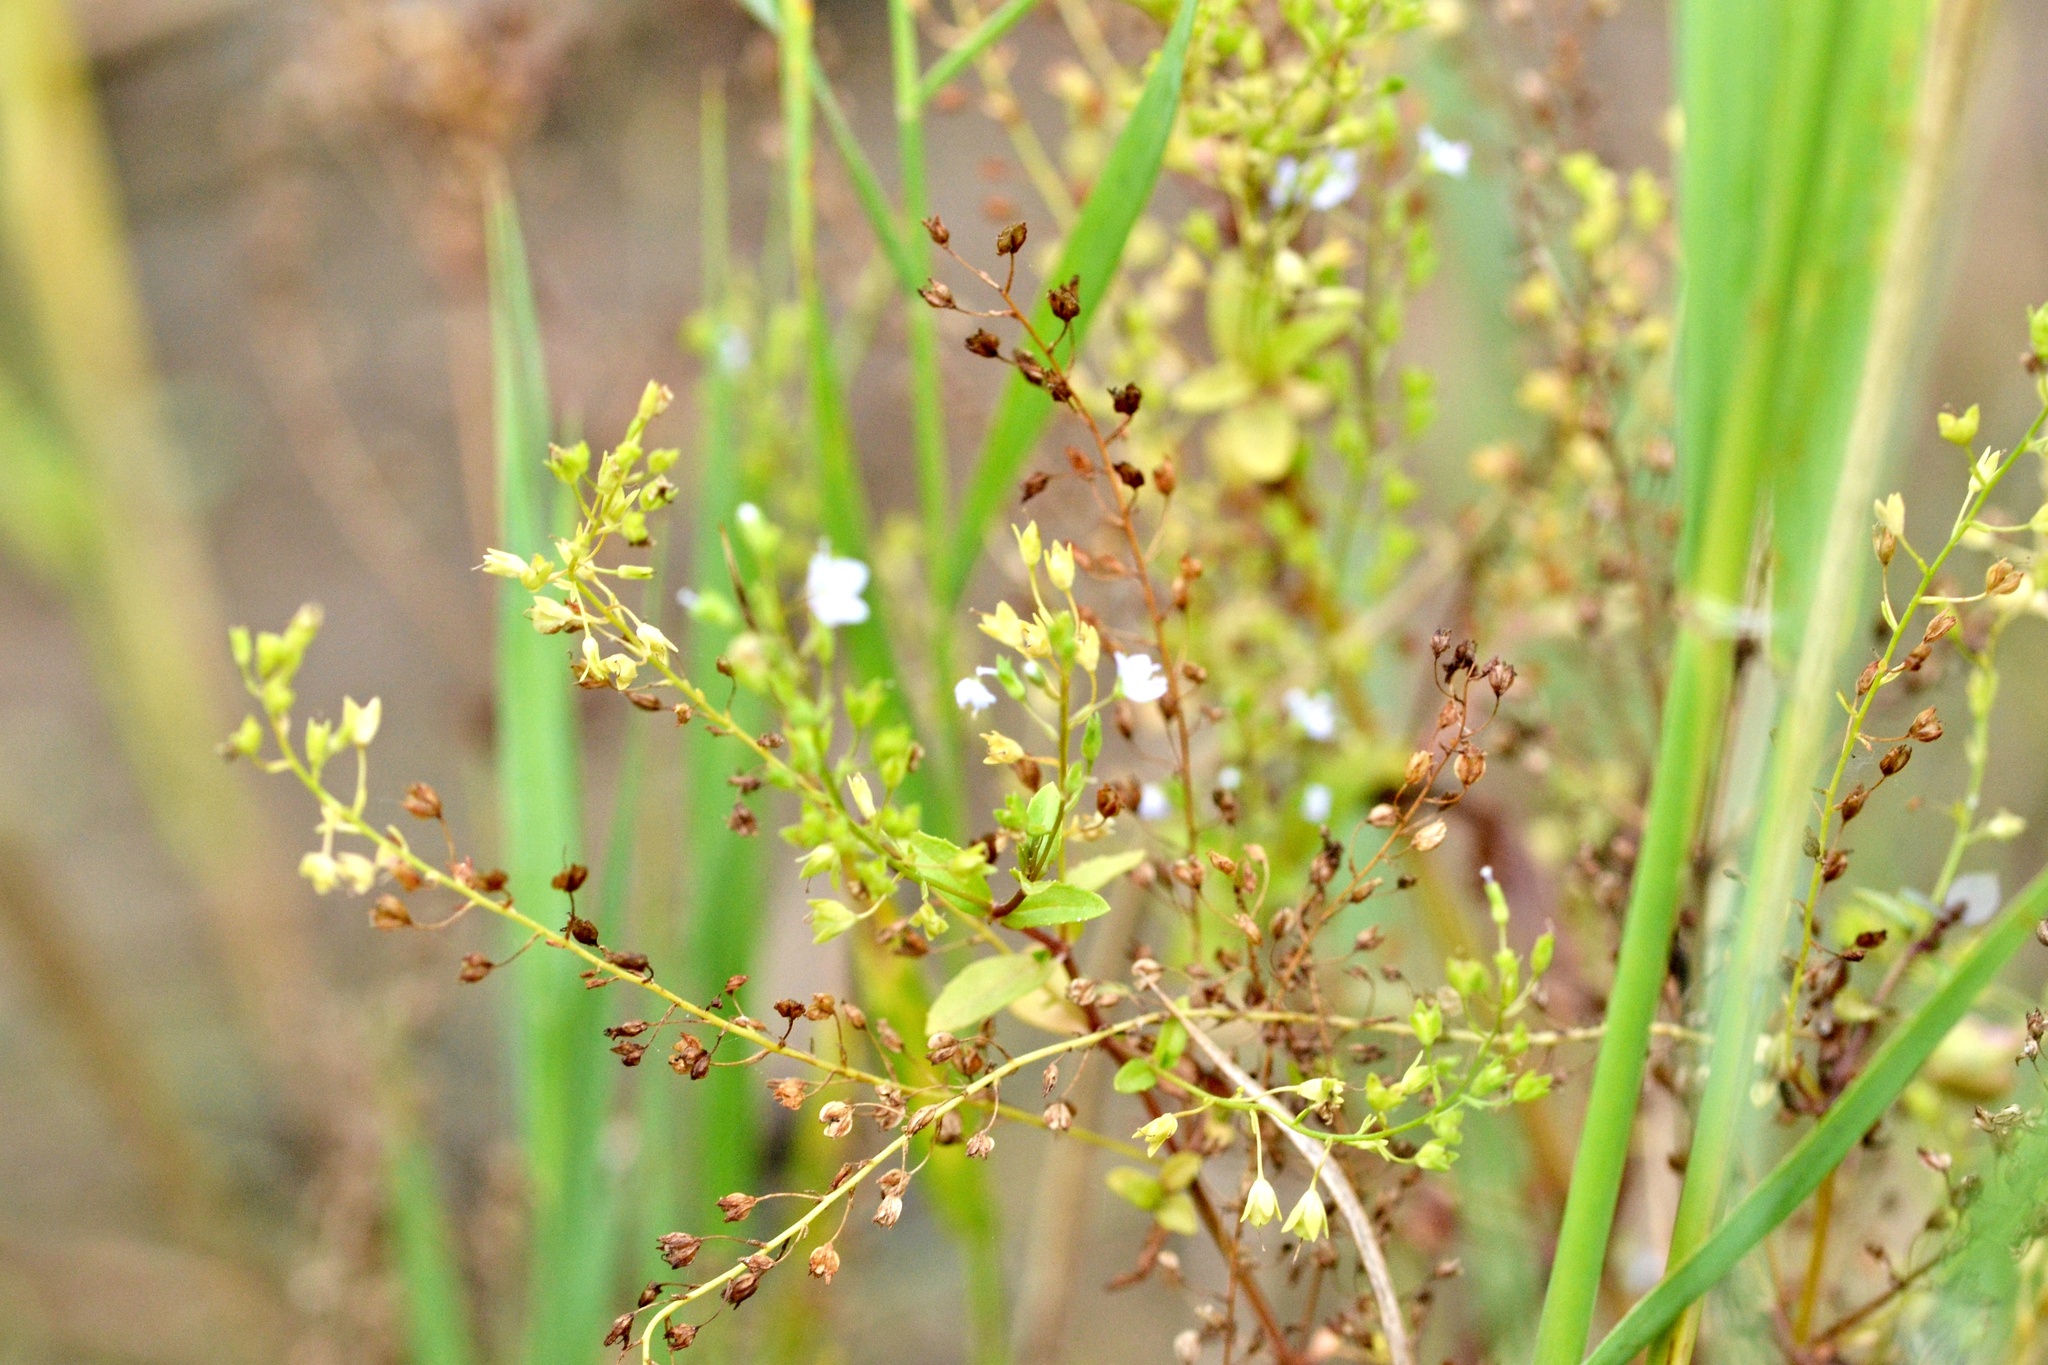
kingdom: Plantae
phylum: Tracheophyta
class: Magnoliopsida
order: Lamiales
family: Plantaginaceae
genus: Veronica
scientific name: Veronica anagallis-aquatica
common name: Water speedwell
